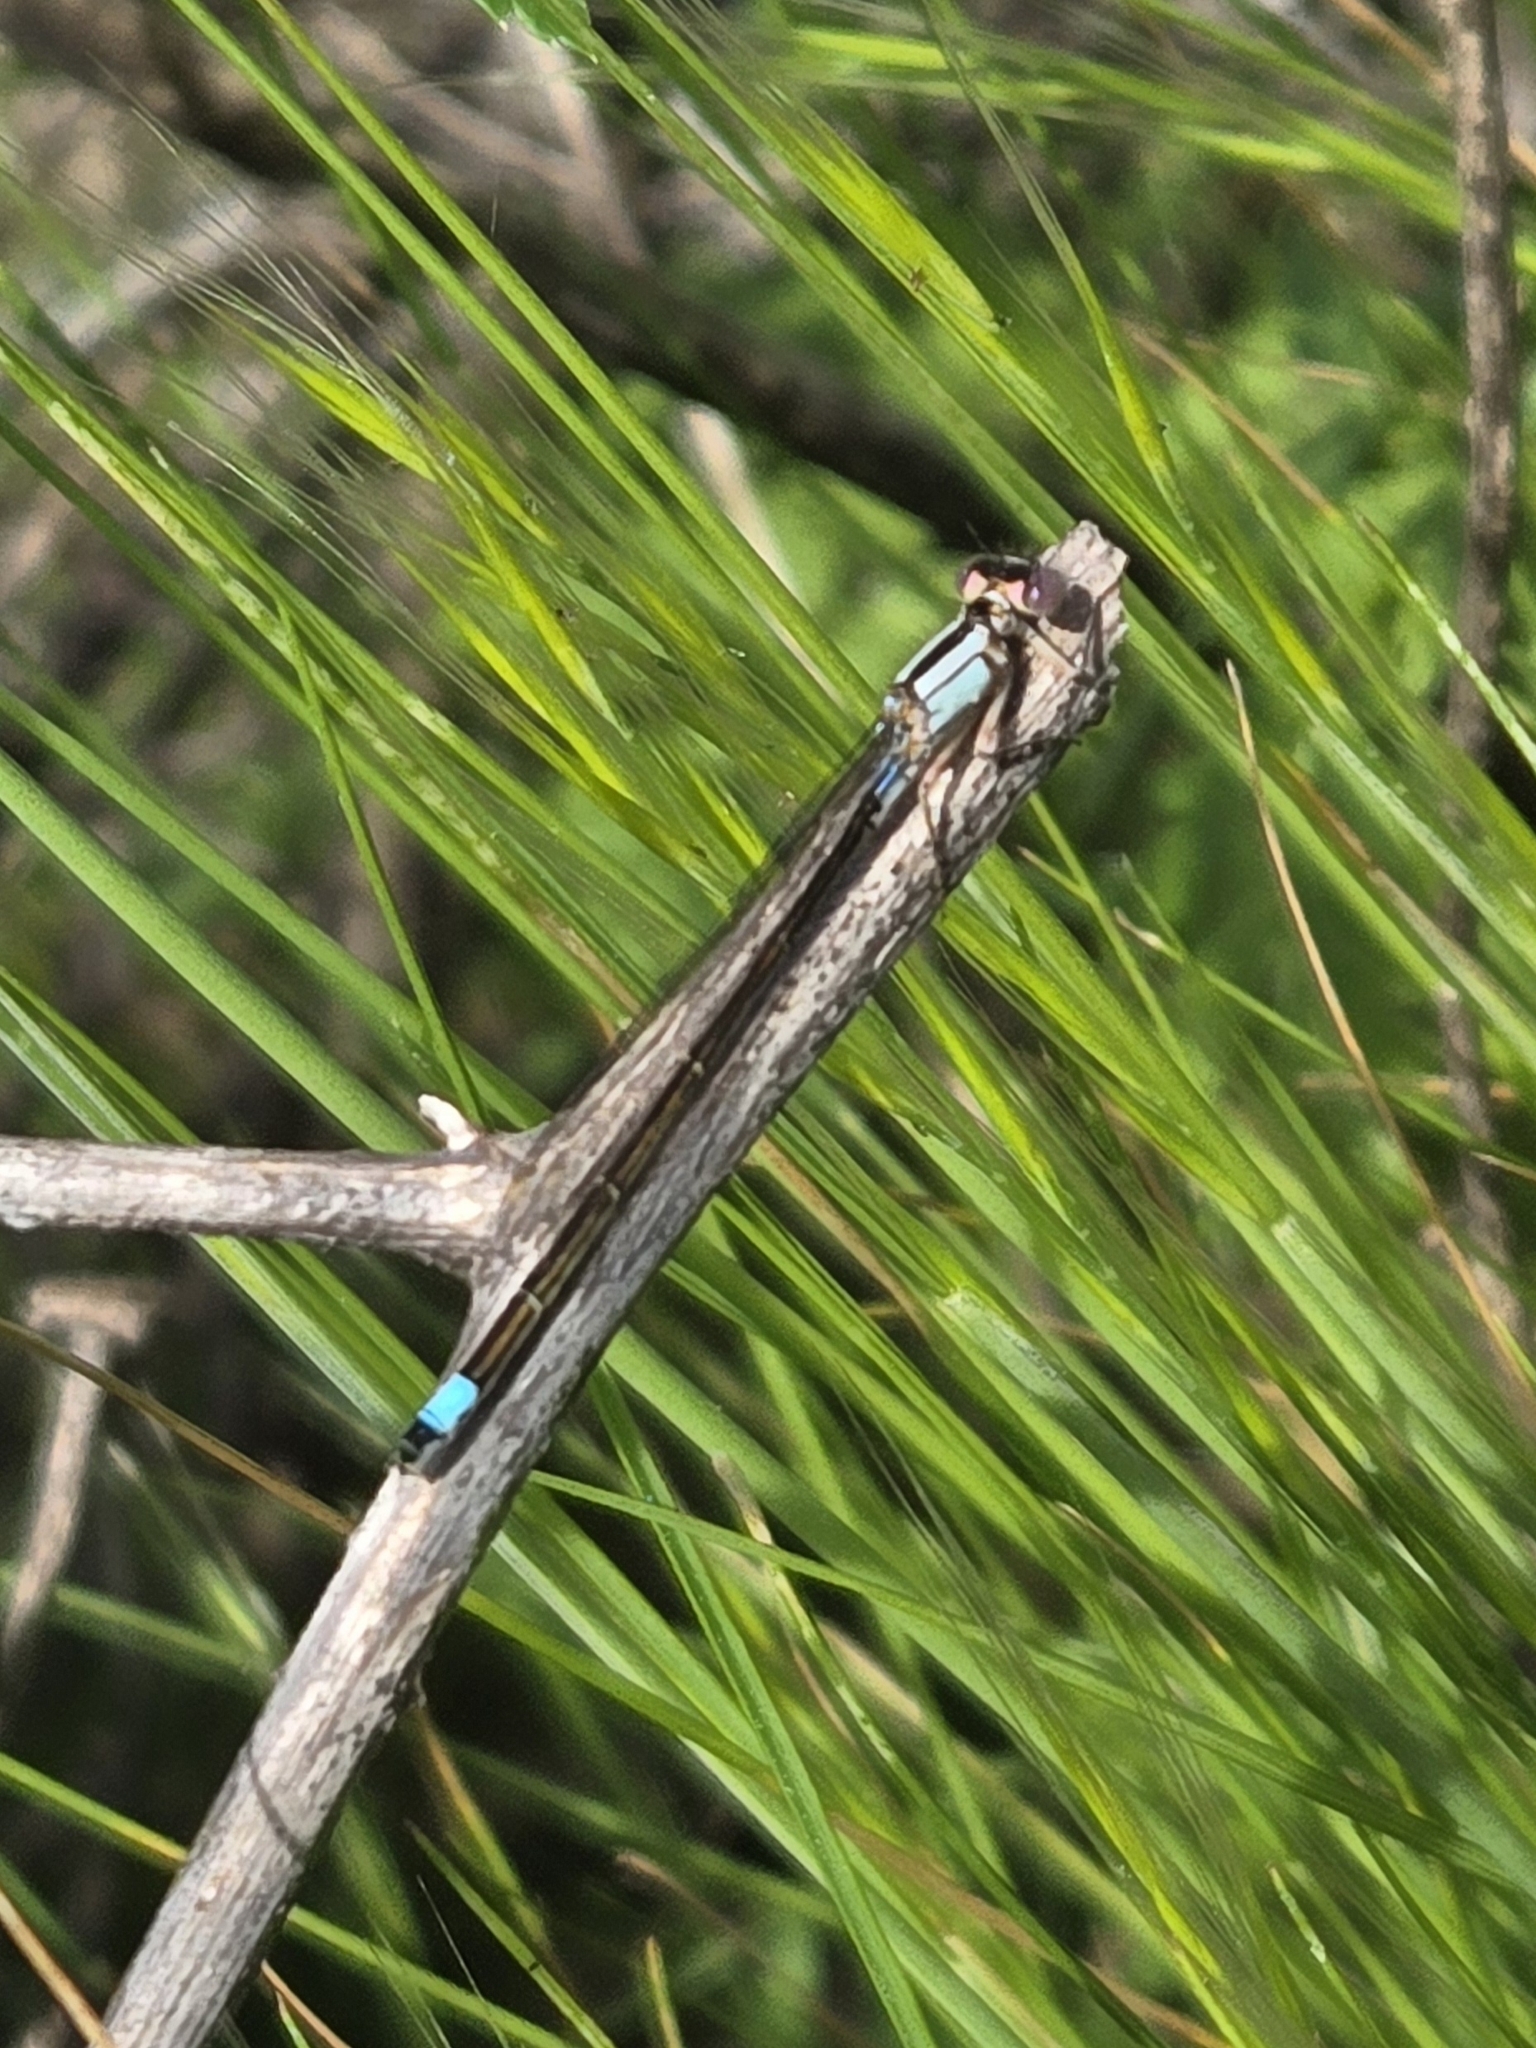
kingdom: Animalia
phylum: Arthropoda
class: Insecta
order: Odonata
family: Coenagrionidae
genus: Ischnura
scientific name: Ischnura cervula
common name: Pacific forktail
